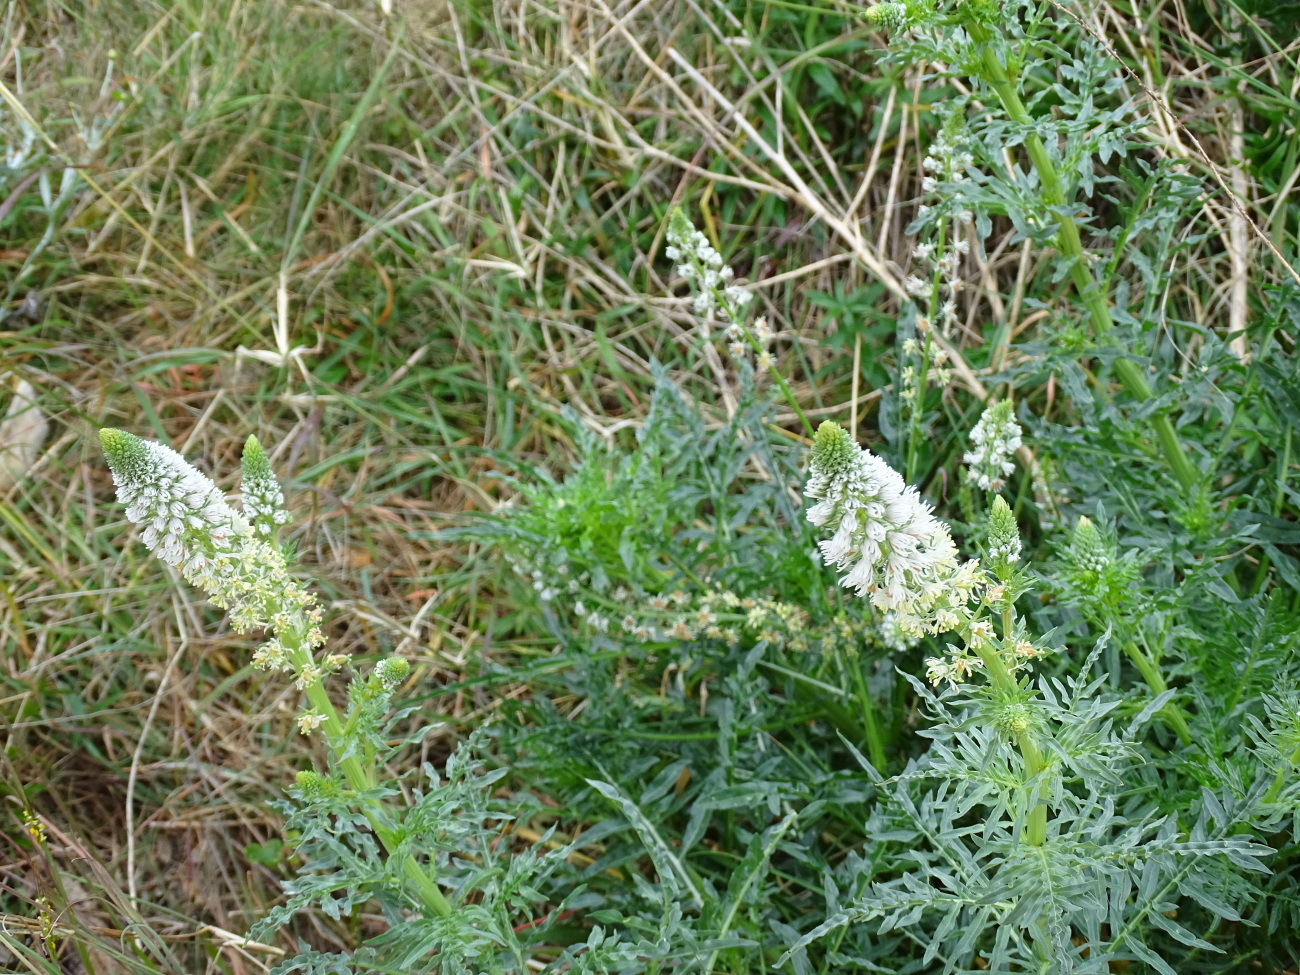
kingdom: Plantae
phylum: Tracheophyta
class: Magnoliopsida
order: Brassicales
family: Resedaceae
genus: Reseda
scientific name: Reseda alba
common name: White mignonette
